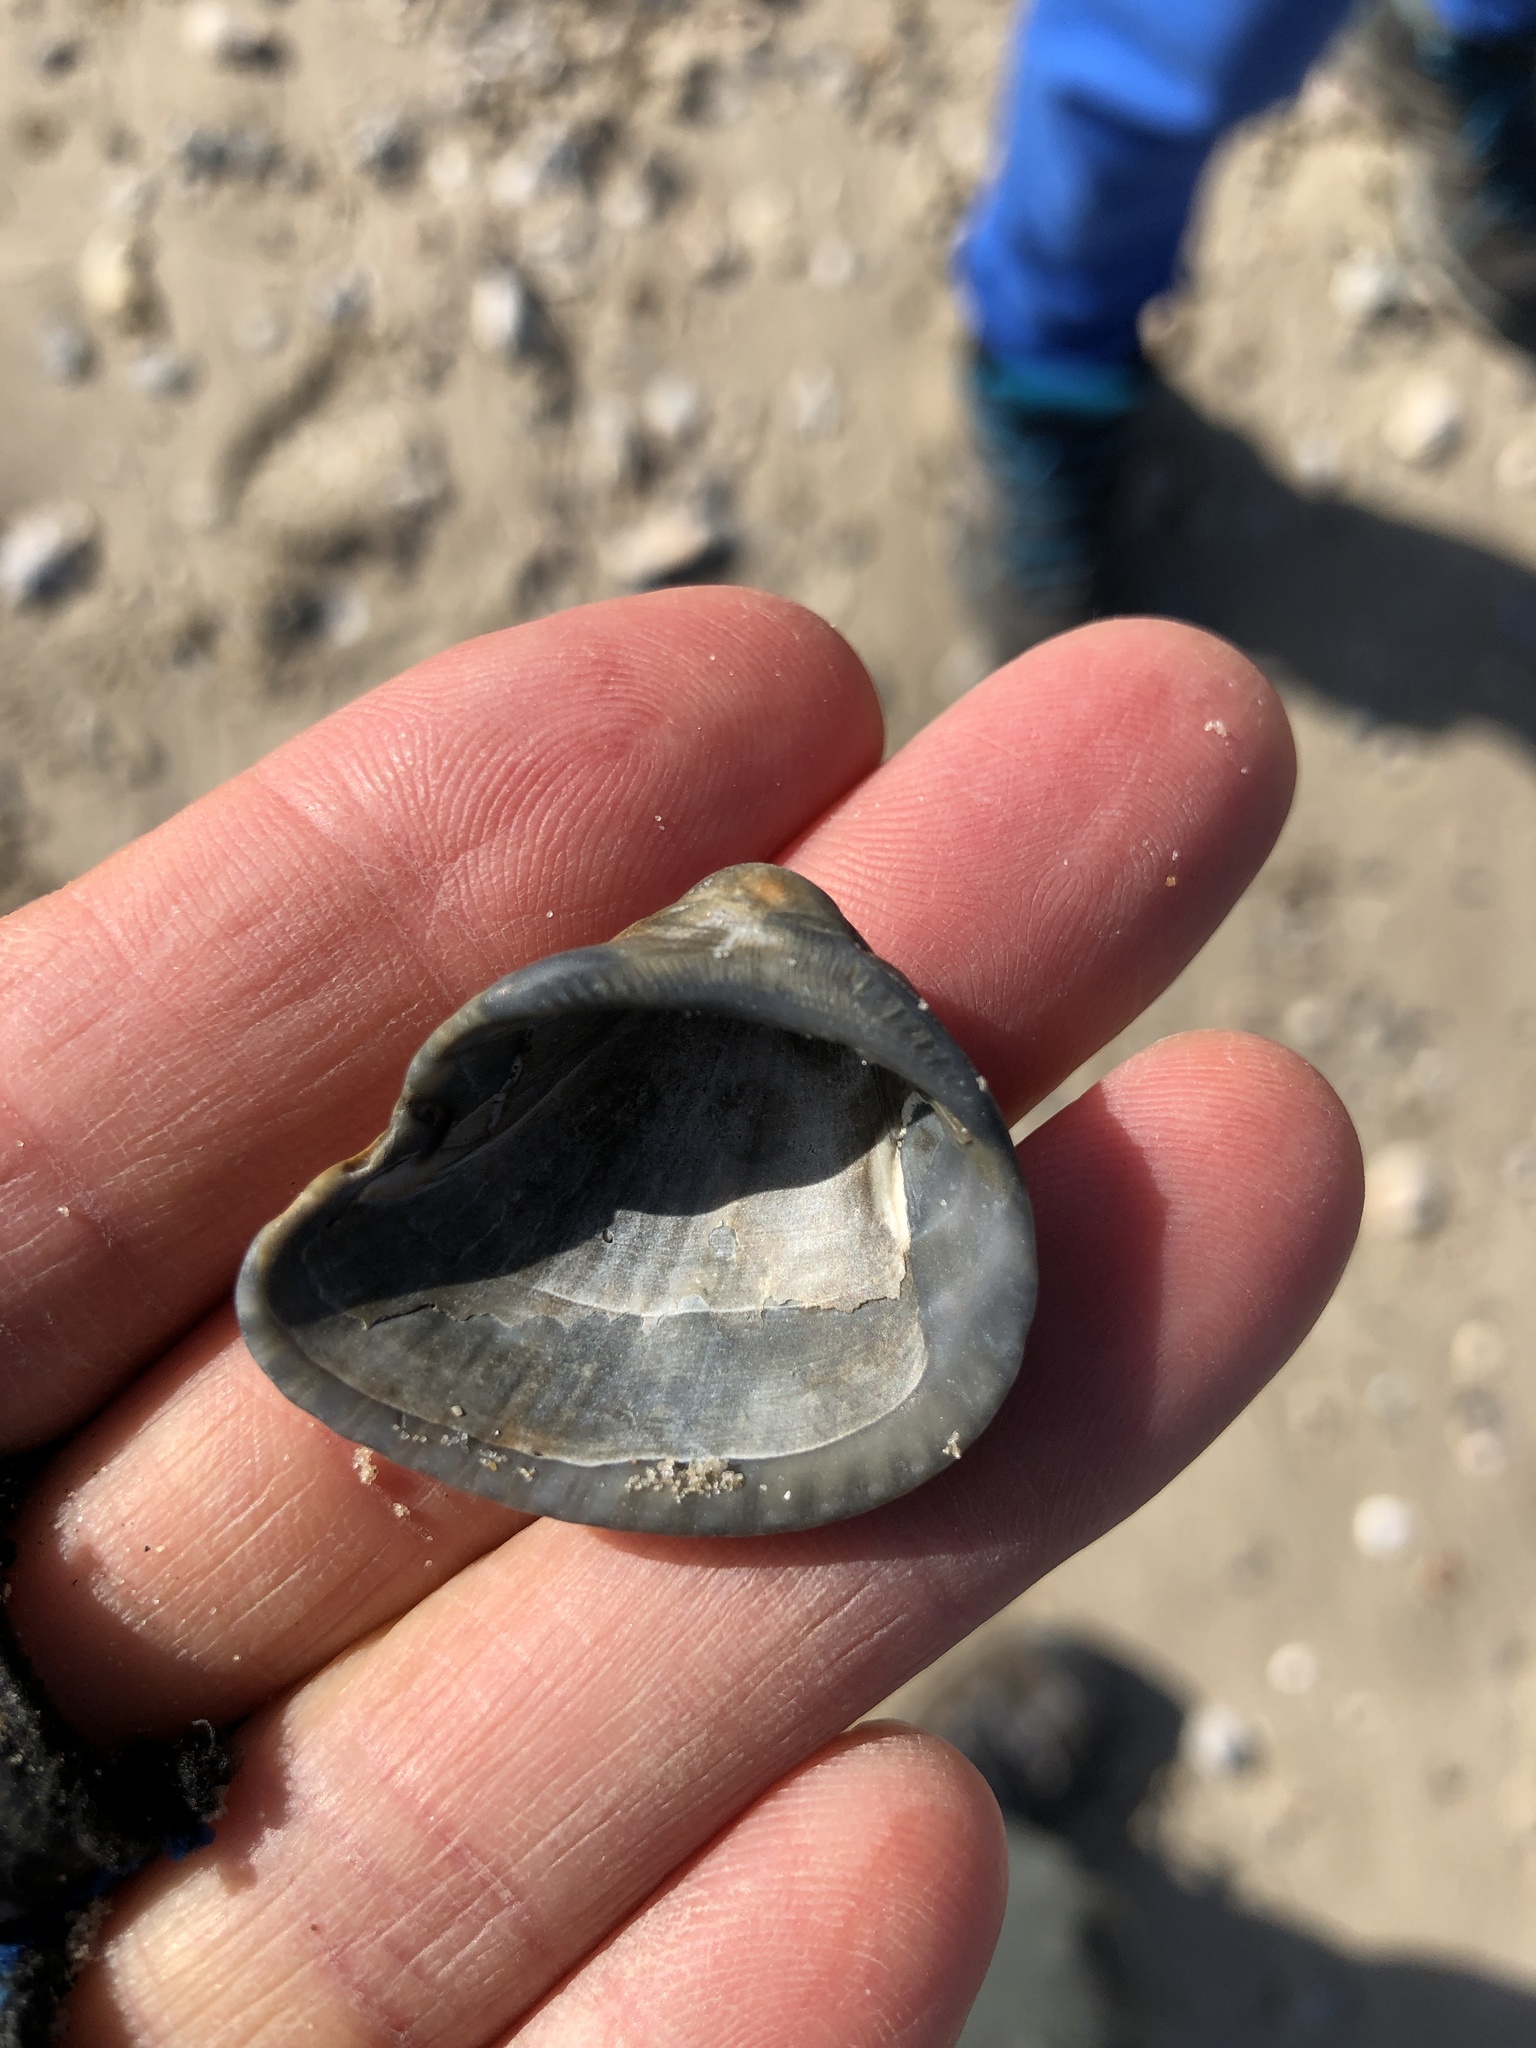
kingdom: Animalia
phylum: Mollusca
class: Bivalvia
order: Arcida
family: Noetiidae
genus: Noetia
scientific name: Noetia ponderosa
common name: Ponderous ark
